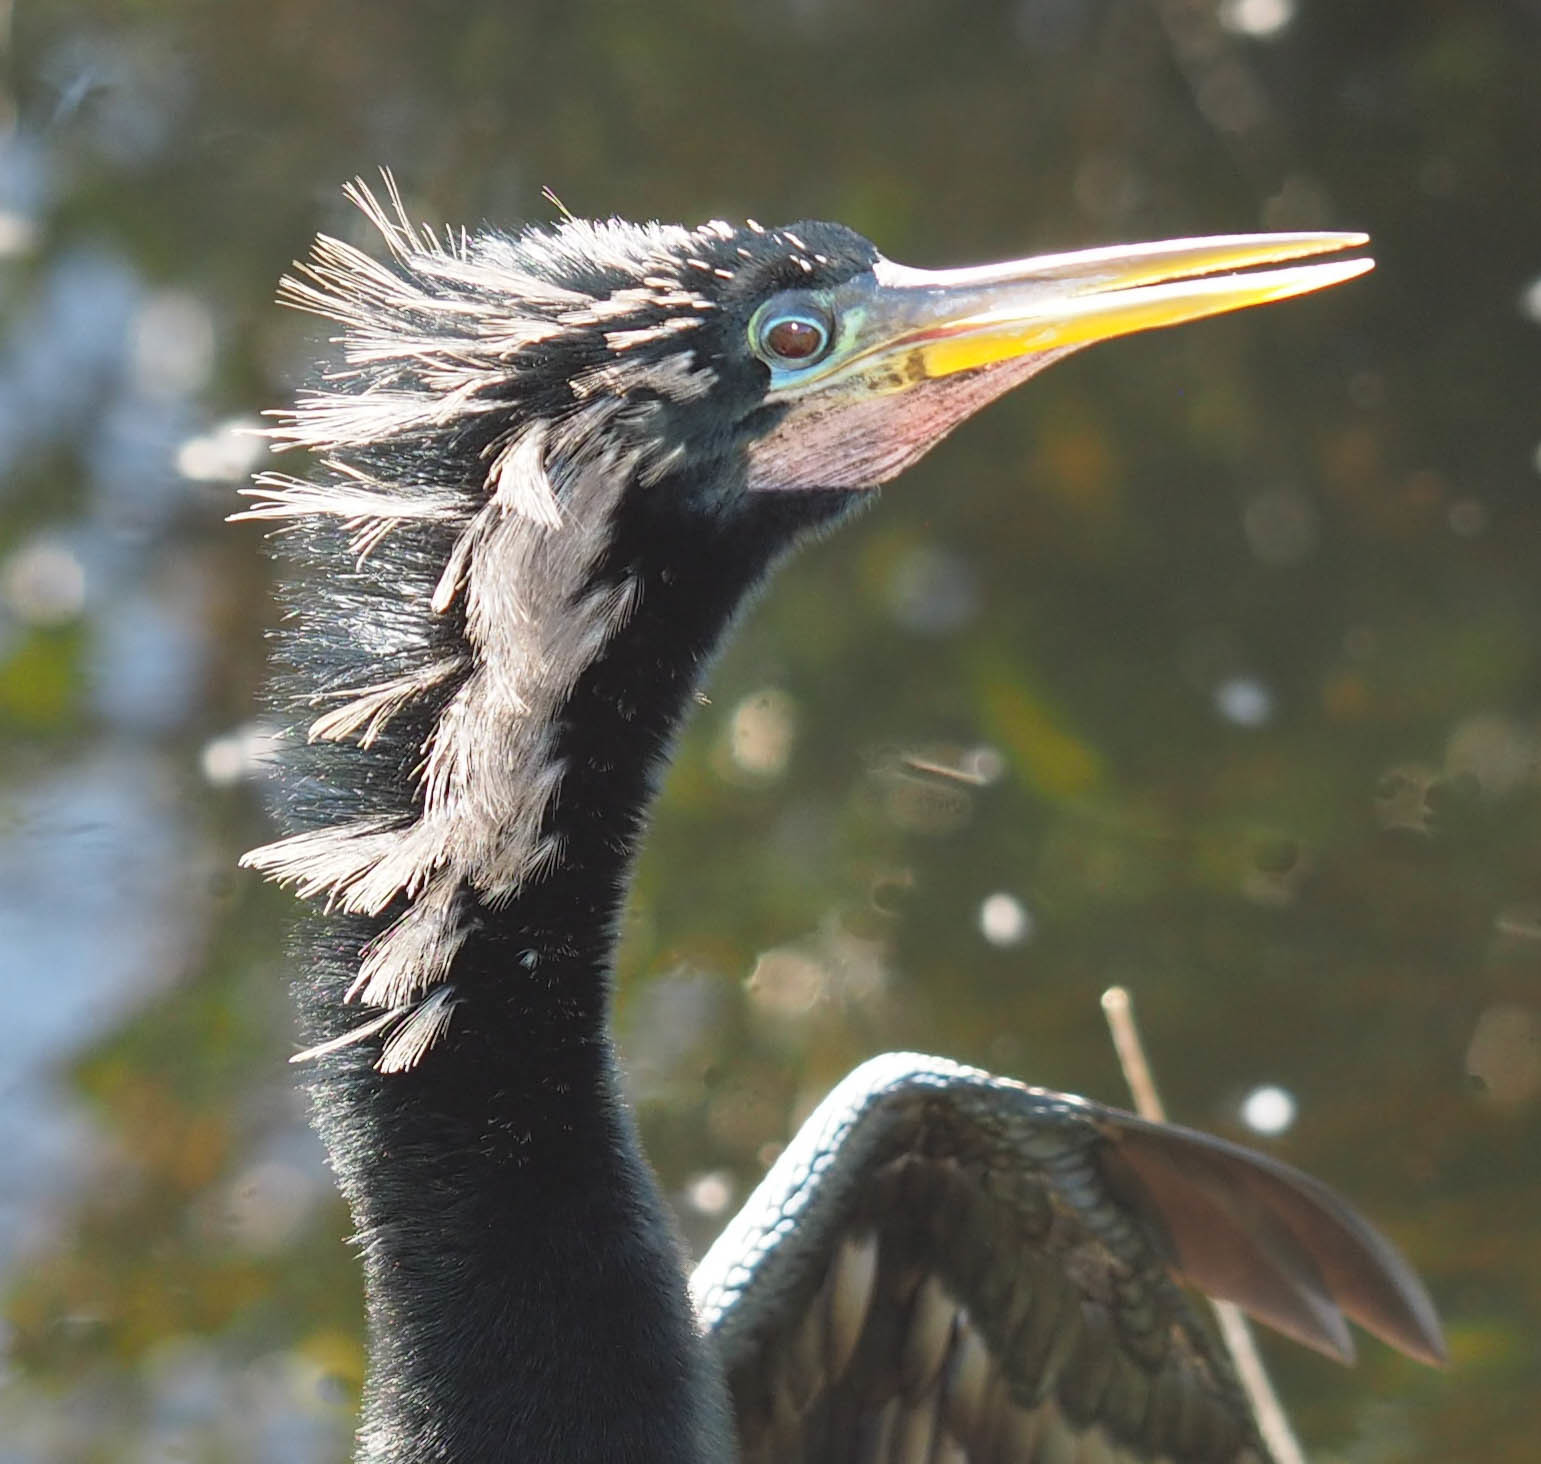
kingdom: Animalia
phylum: Chordata
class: Aves
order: Suliformes
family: Anhingidae
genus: Anhinga
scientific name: Anhinga anhinga
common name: Anhinga
